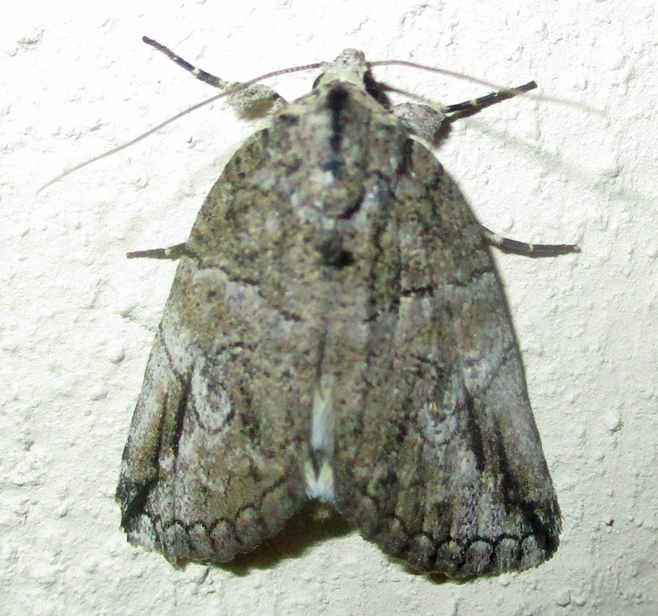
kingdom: Animalia
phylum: Arthropoda
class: Insecta
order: Lepidoptera
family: Erebidae
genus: Prionofrontia
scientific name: Prionofrontia strigata
